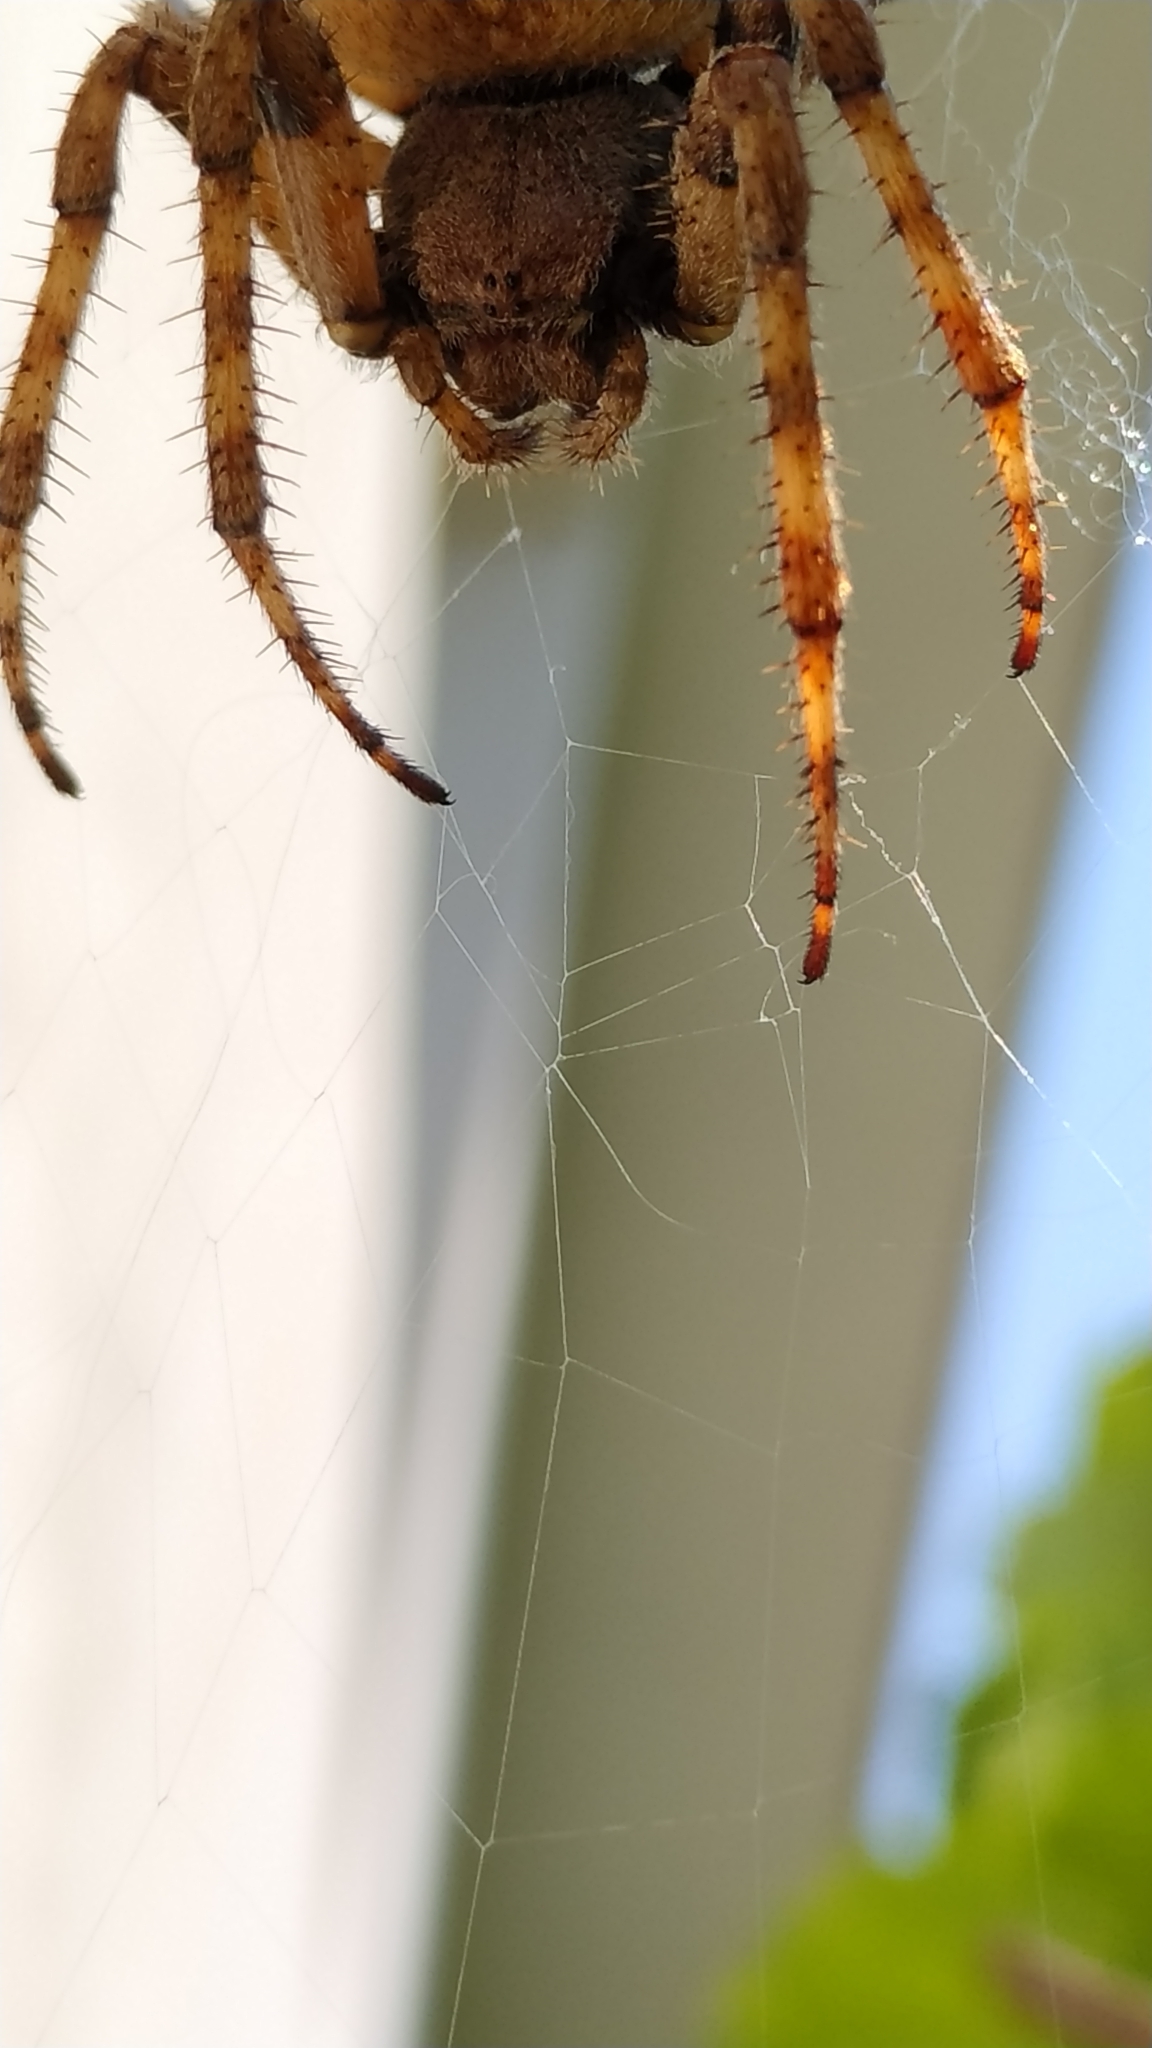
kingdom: Animalia
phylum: Arthropoda
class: Arachnida
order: Araneae
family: Araneidae
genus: Araneus
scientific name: Araneus angulatus
